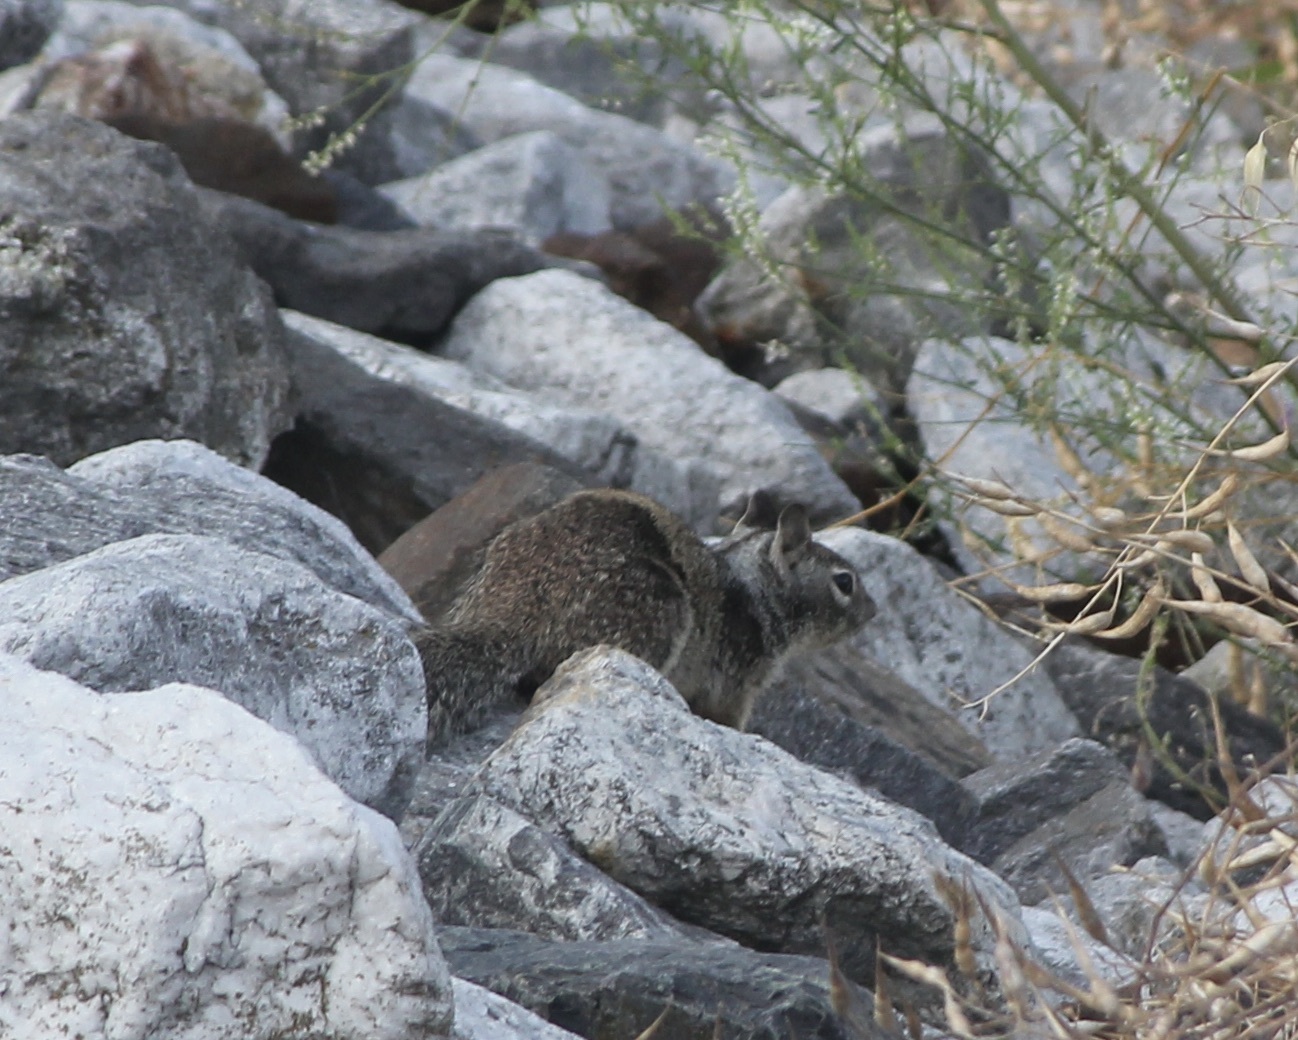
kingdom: Animalia
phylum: Chordata
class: Mammalia
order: Rodentia
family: Sciuridae
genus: Otospermophilus
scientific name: Otospermophilus beecheyi
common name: California ground squirrel
